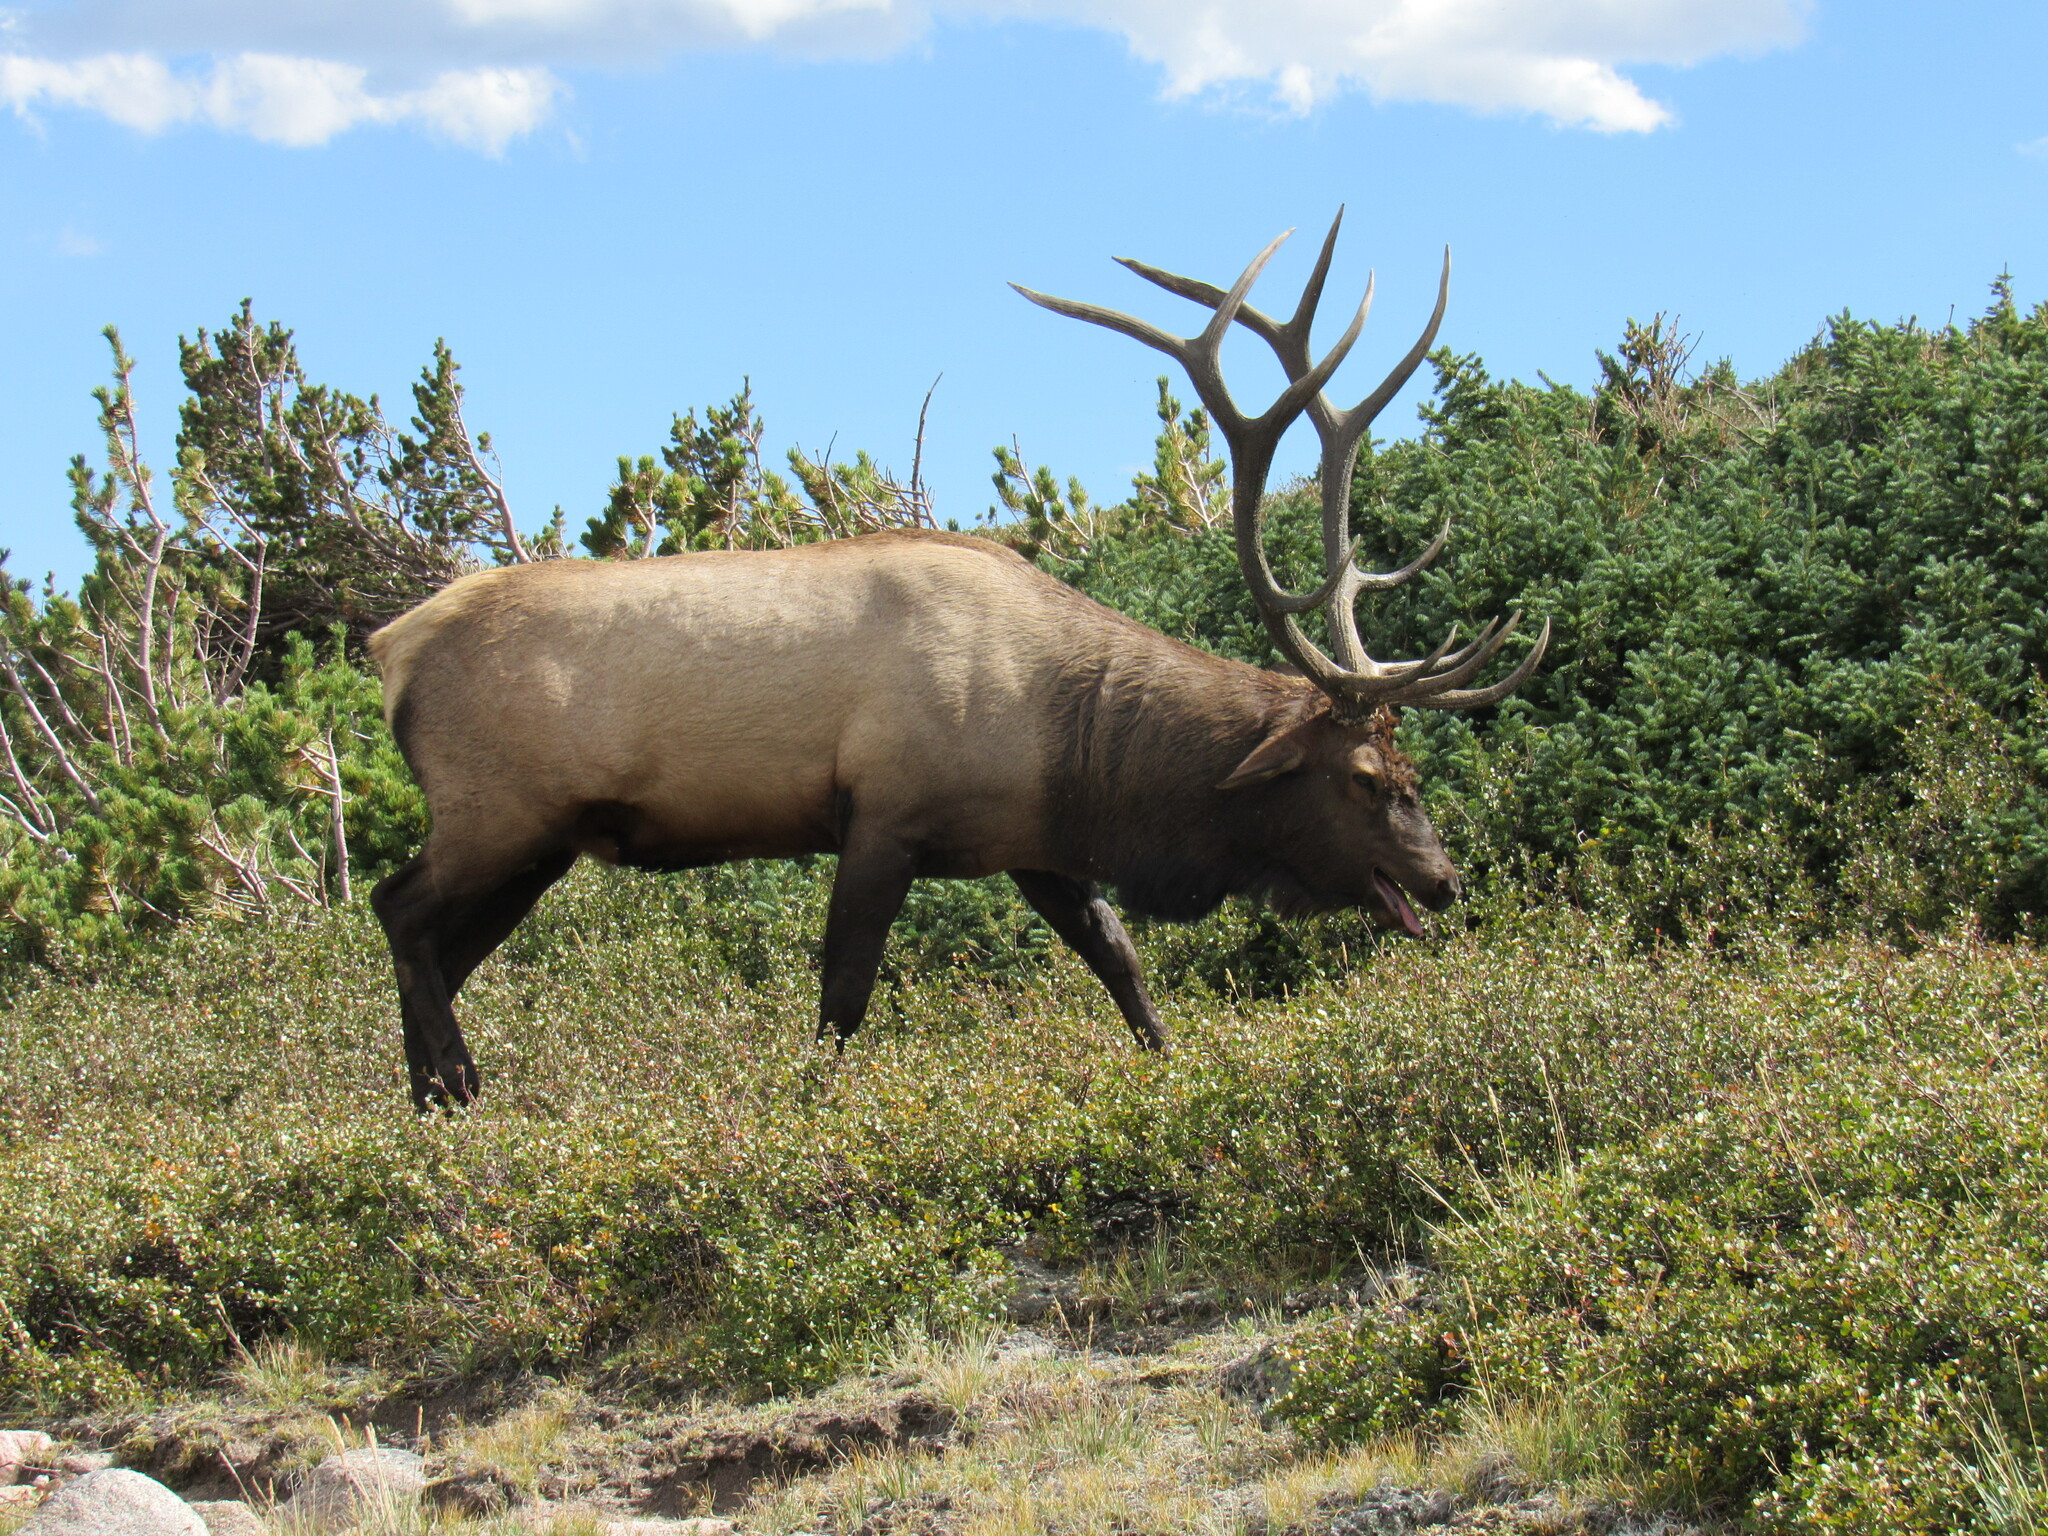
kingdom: Animalia
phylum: Chordata
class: Mammalia
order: Artiodactyla
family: Cervidae
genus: Cervus
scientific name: Cervus elaphus
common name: Red deer
